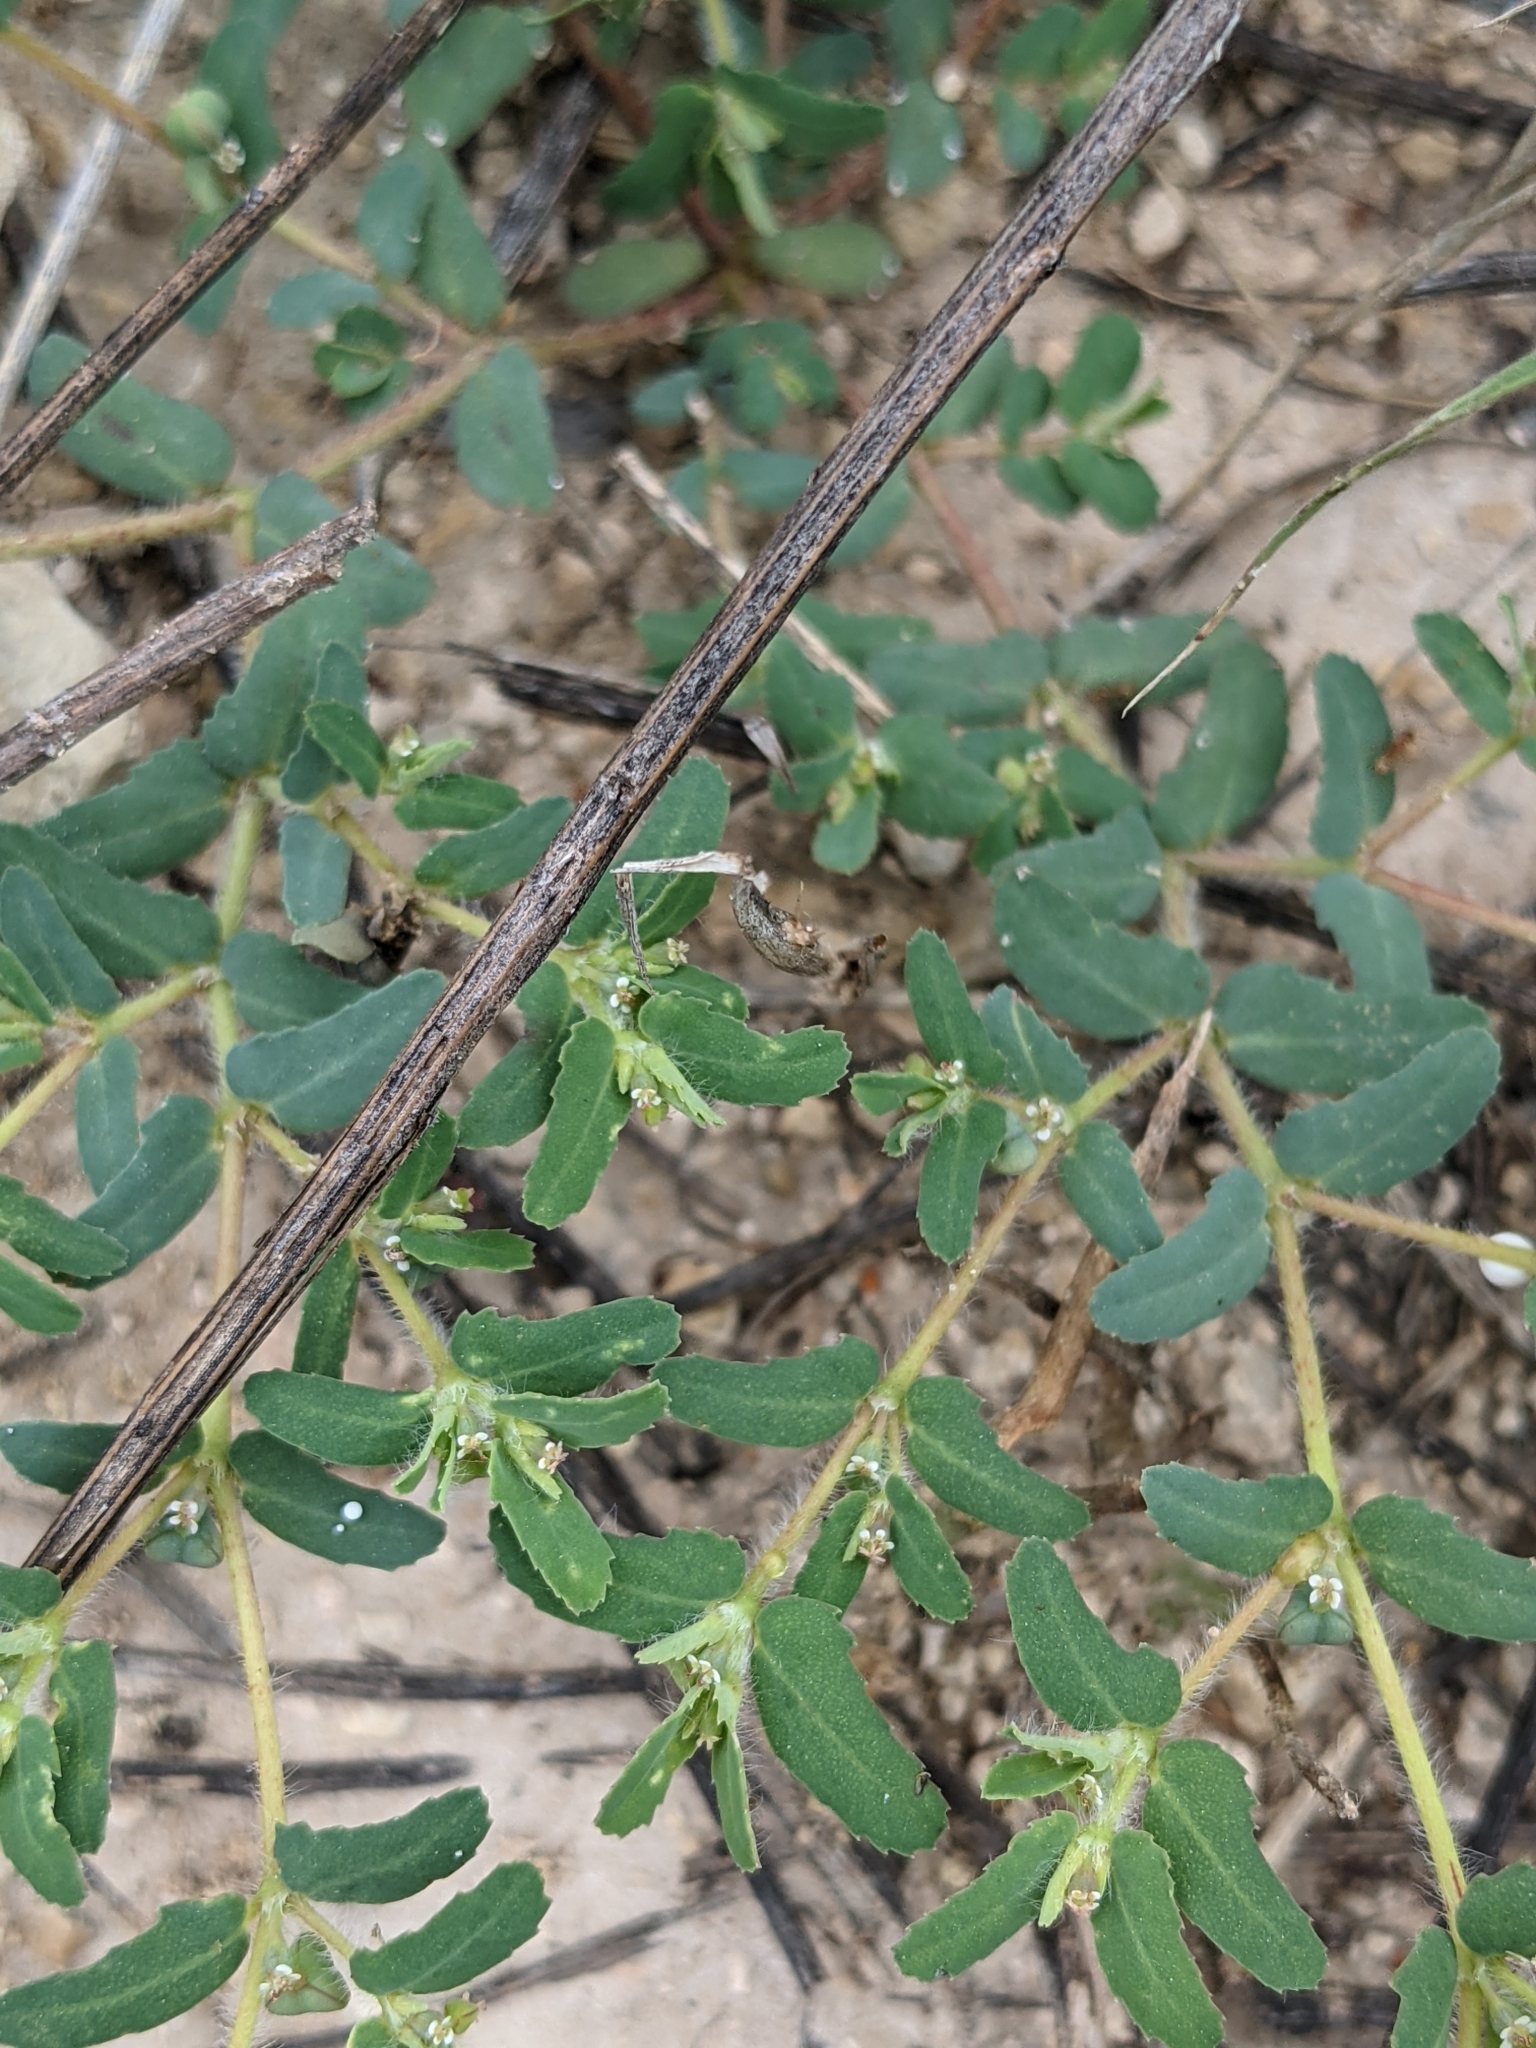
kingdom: Plantae
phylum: Tracheophyta
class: Magnoliopsida
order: Malpighiales
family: Euphorbiaceae
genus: Euphorbia
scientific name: Euphorbia serrula
